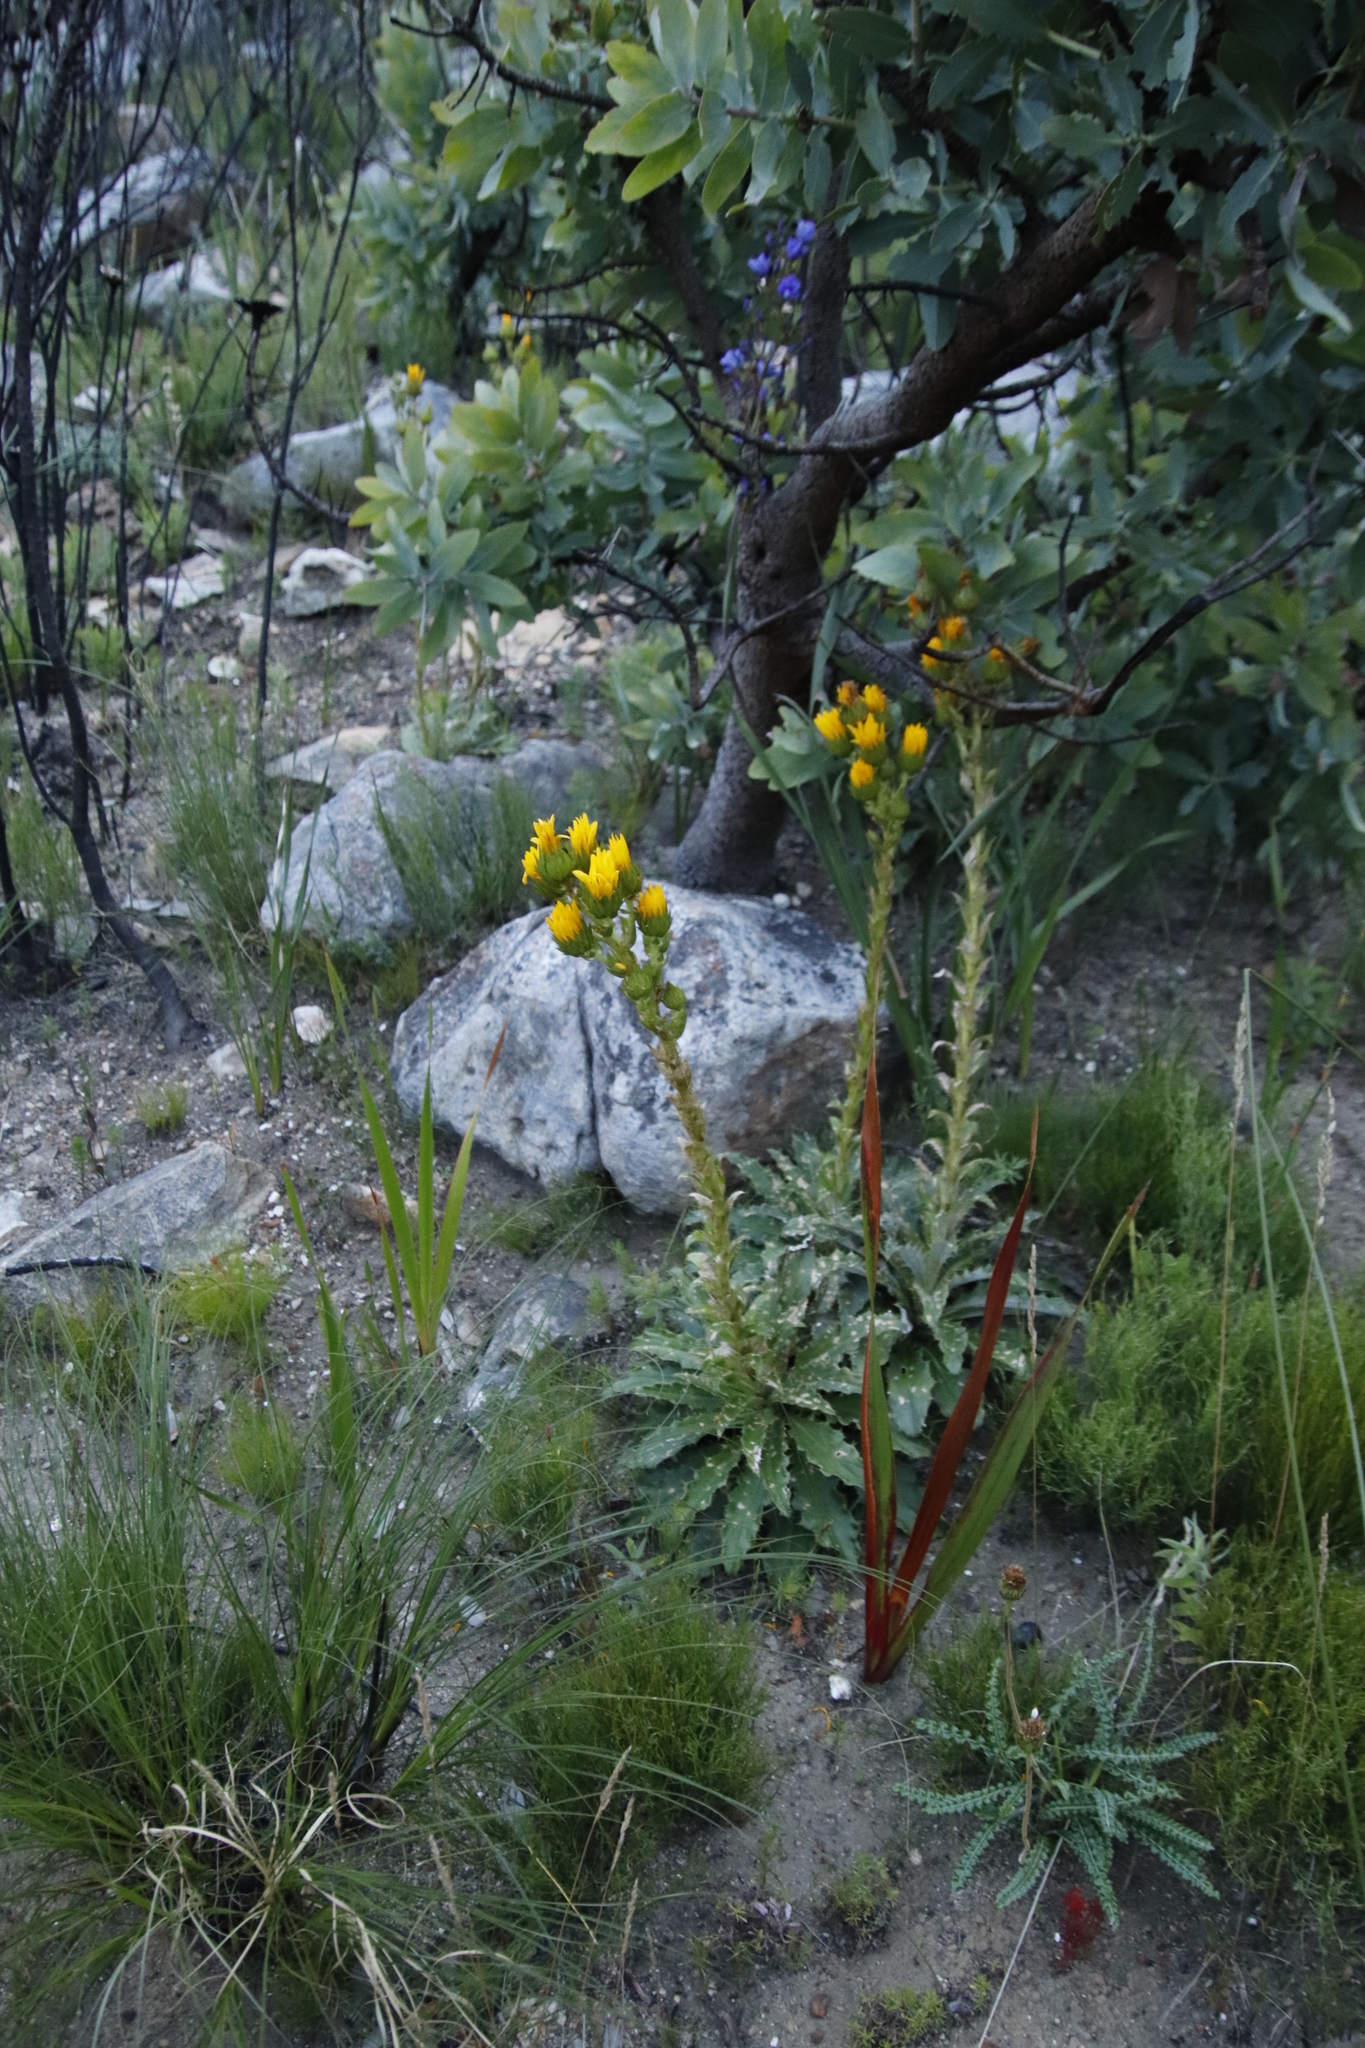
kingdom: Plantae
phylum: Tracheophyta
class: Magnoliopsida
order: Asterales
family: Asteraceae
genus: Berkheya
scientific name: Berkheya armata
